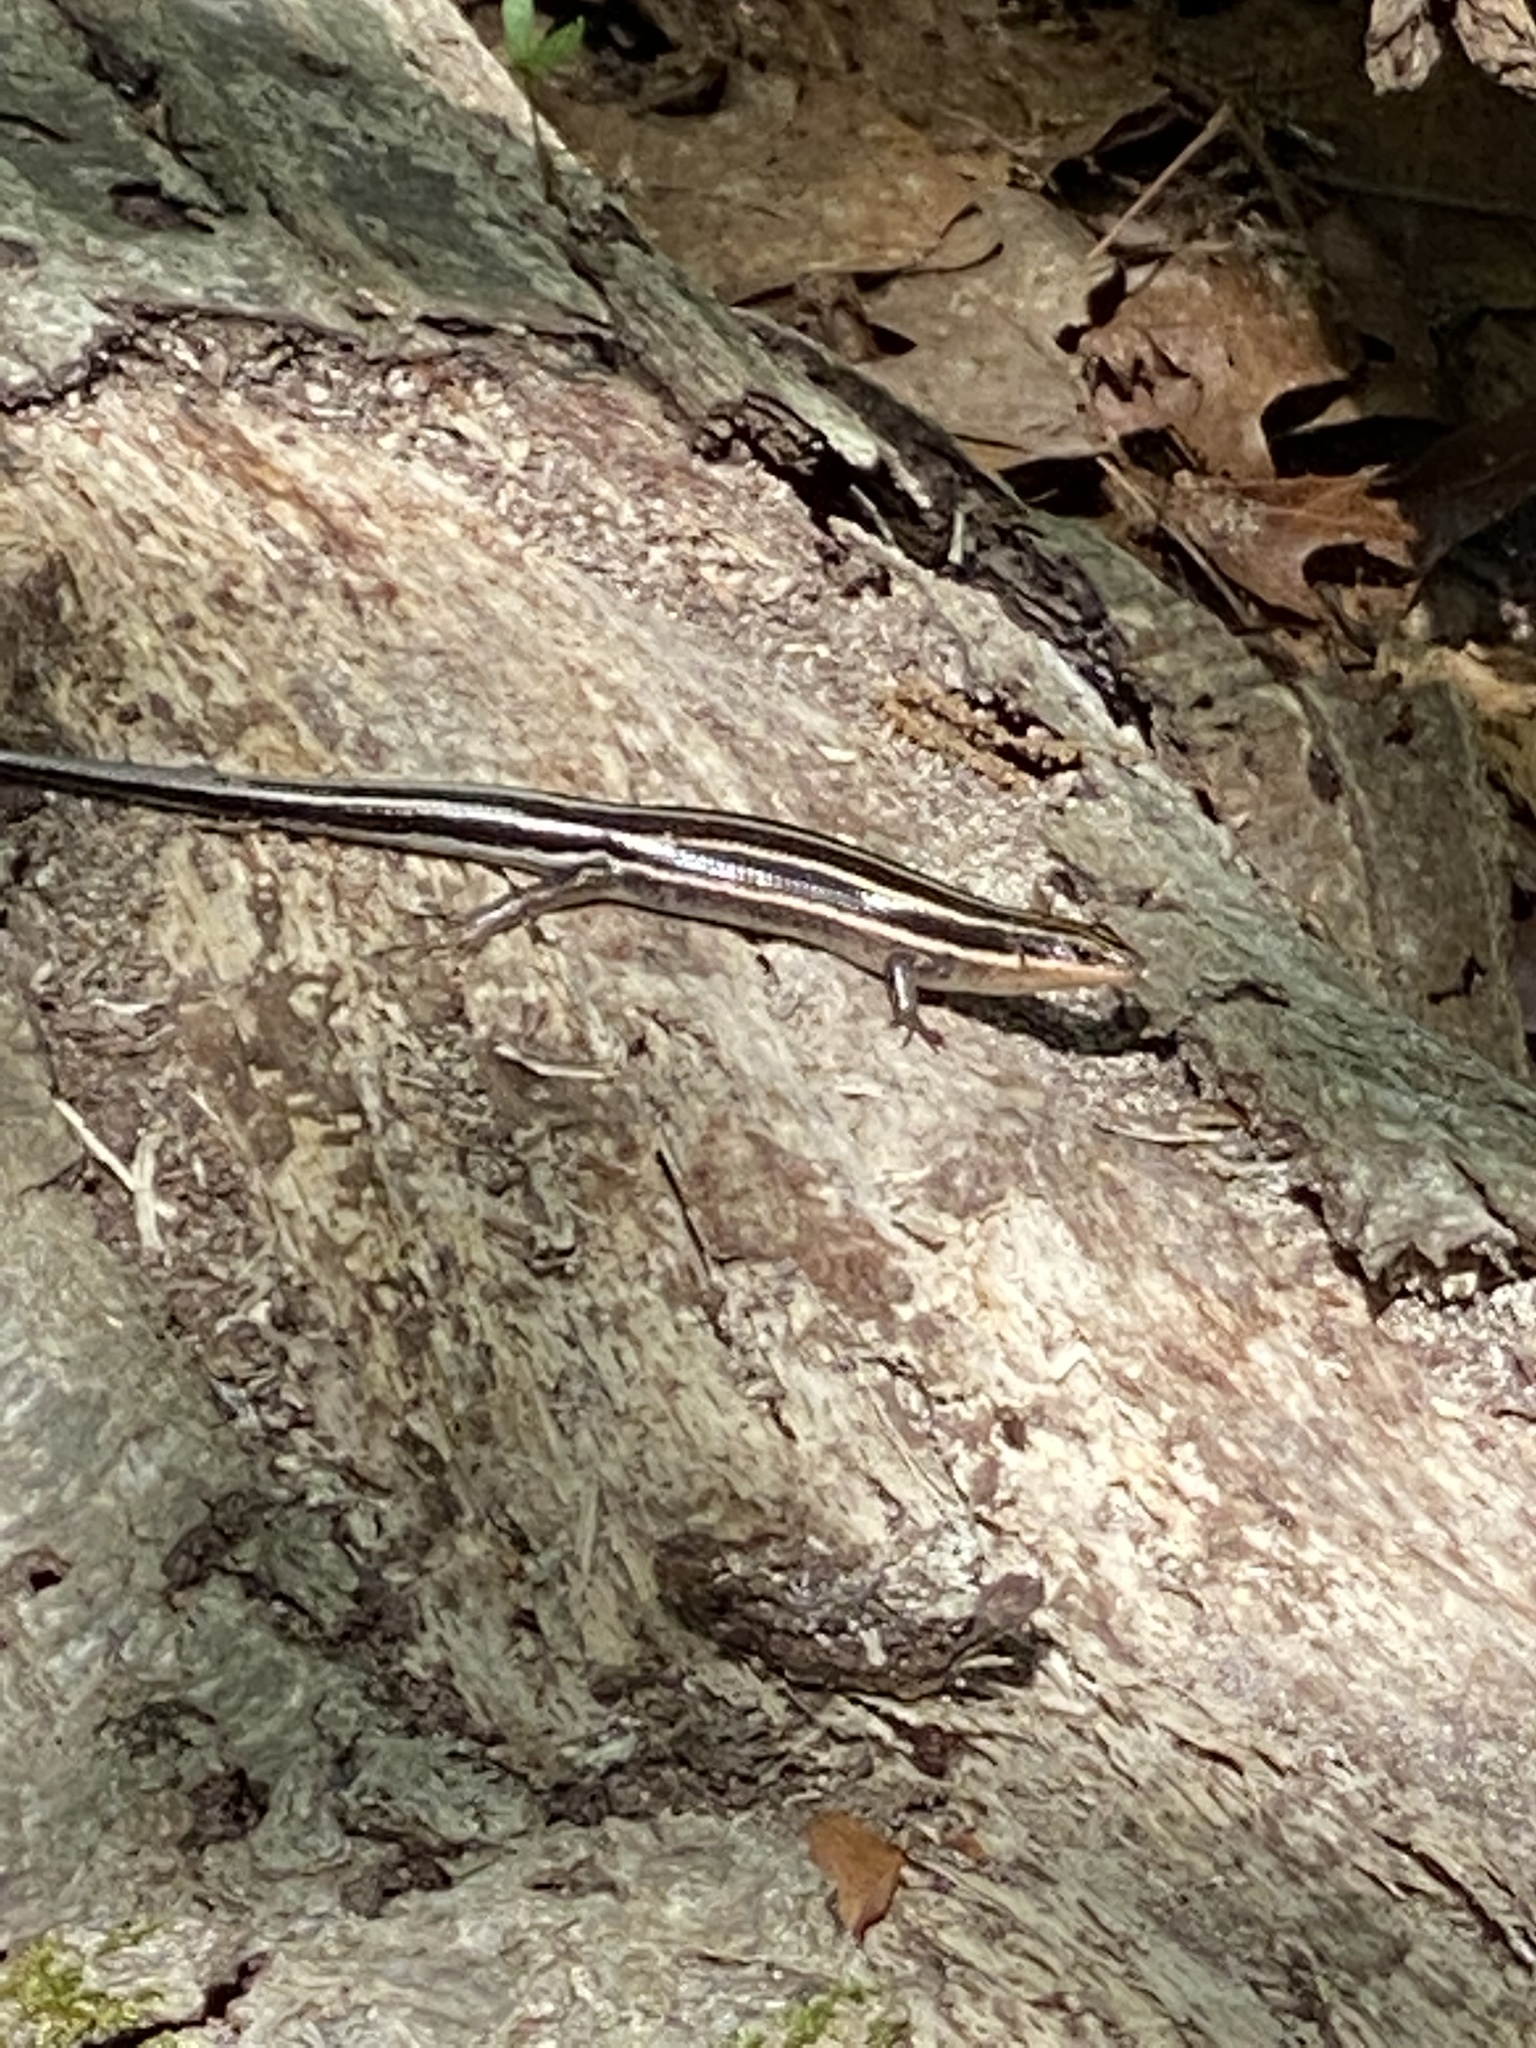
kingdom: Animalia
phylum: Chordata
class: Squamata
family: Scincidae
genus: Plestiodon
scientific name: Plestiodon fasciatus
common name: Five-lined skink
